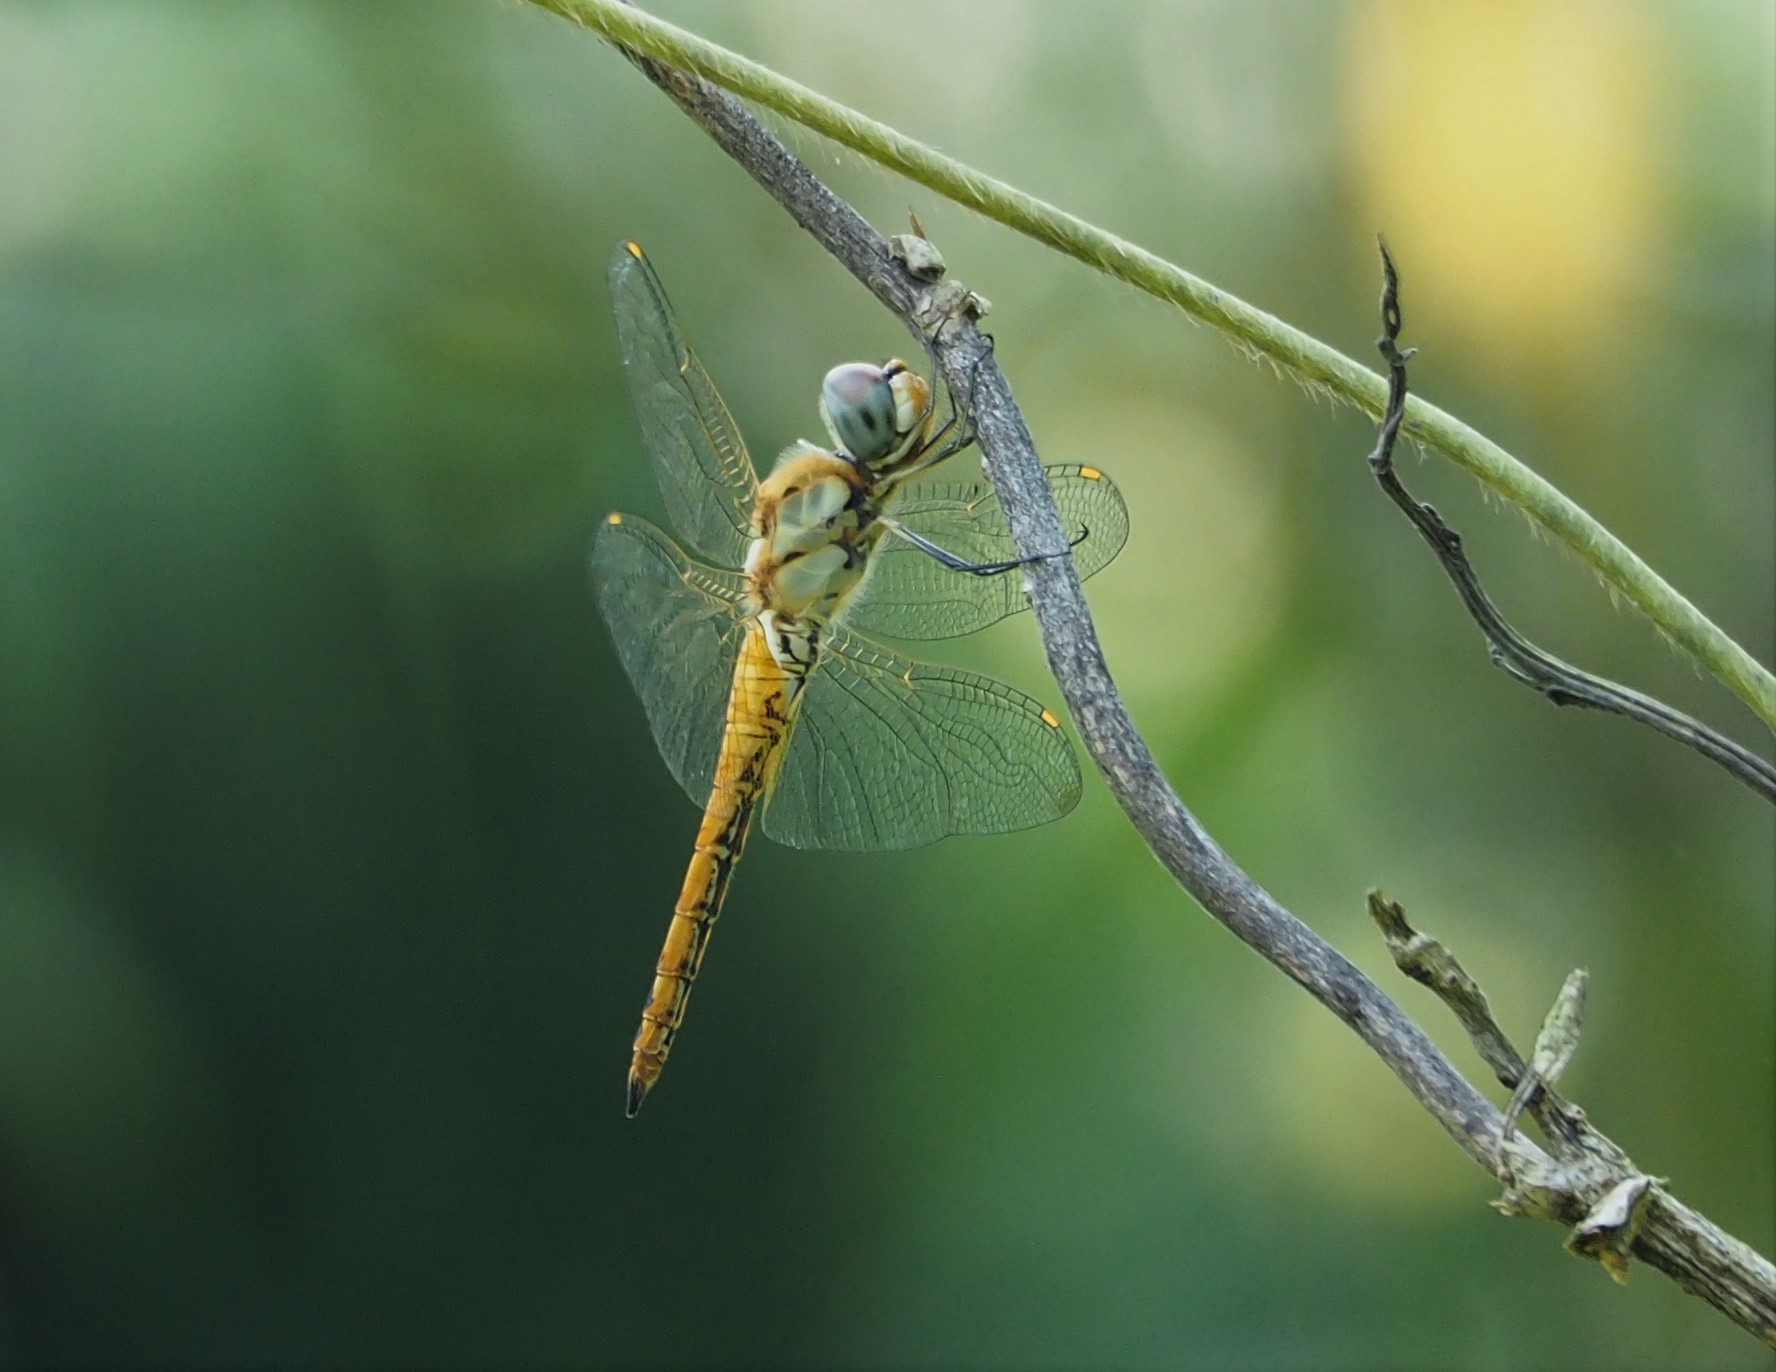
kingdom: Animalia
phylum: Arthropoda
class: Insecta
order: Odonata
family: Libellulidae
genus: Pantala
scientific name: Pantala flavescens
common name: Wandering glider
